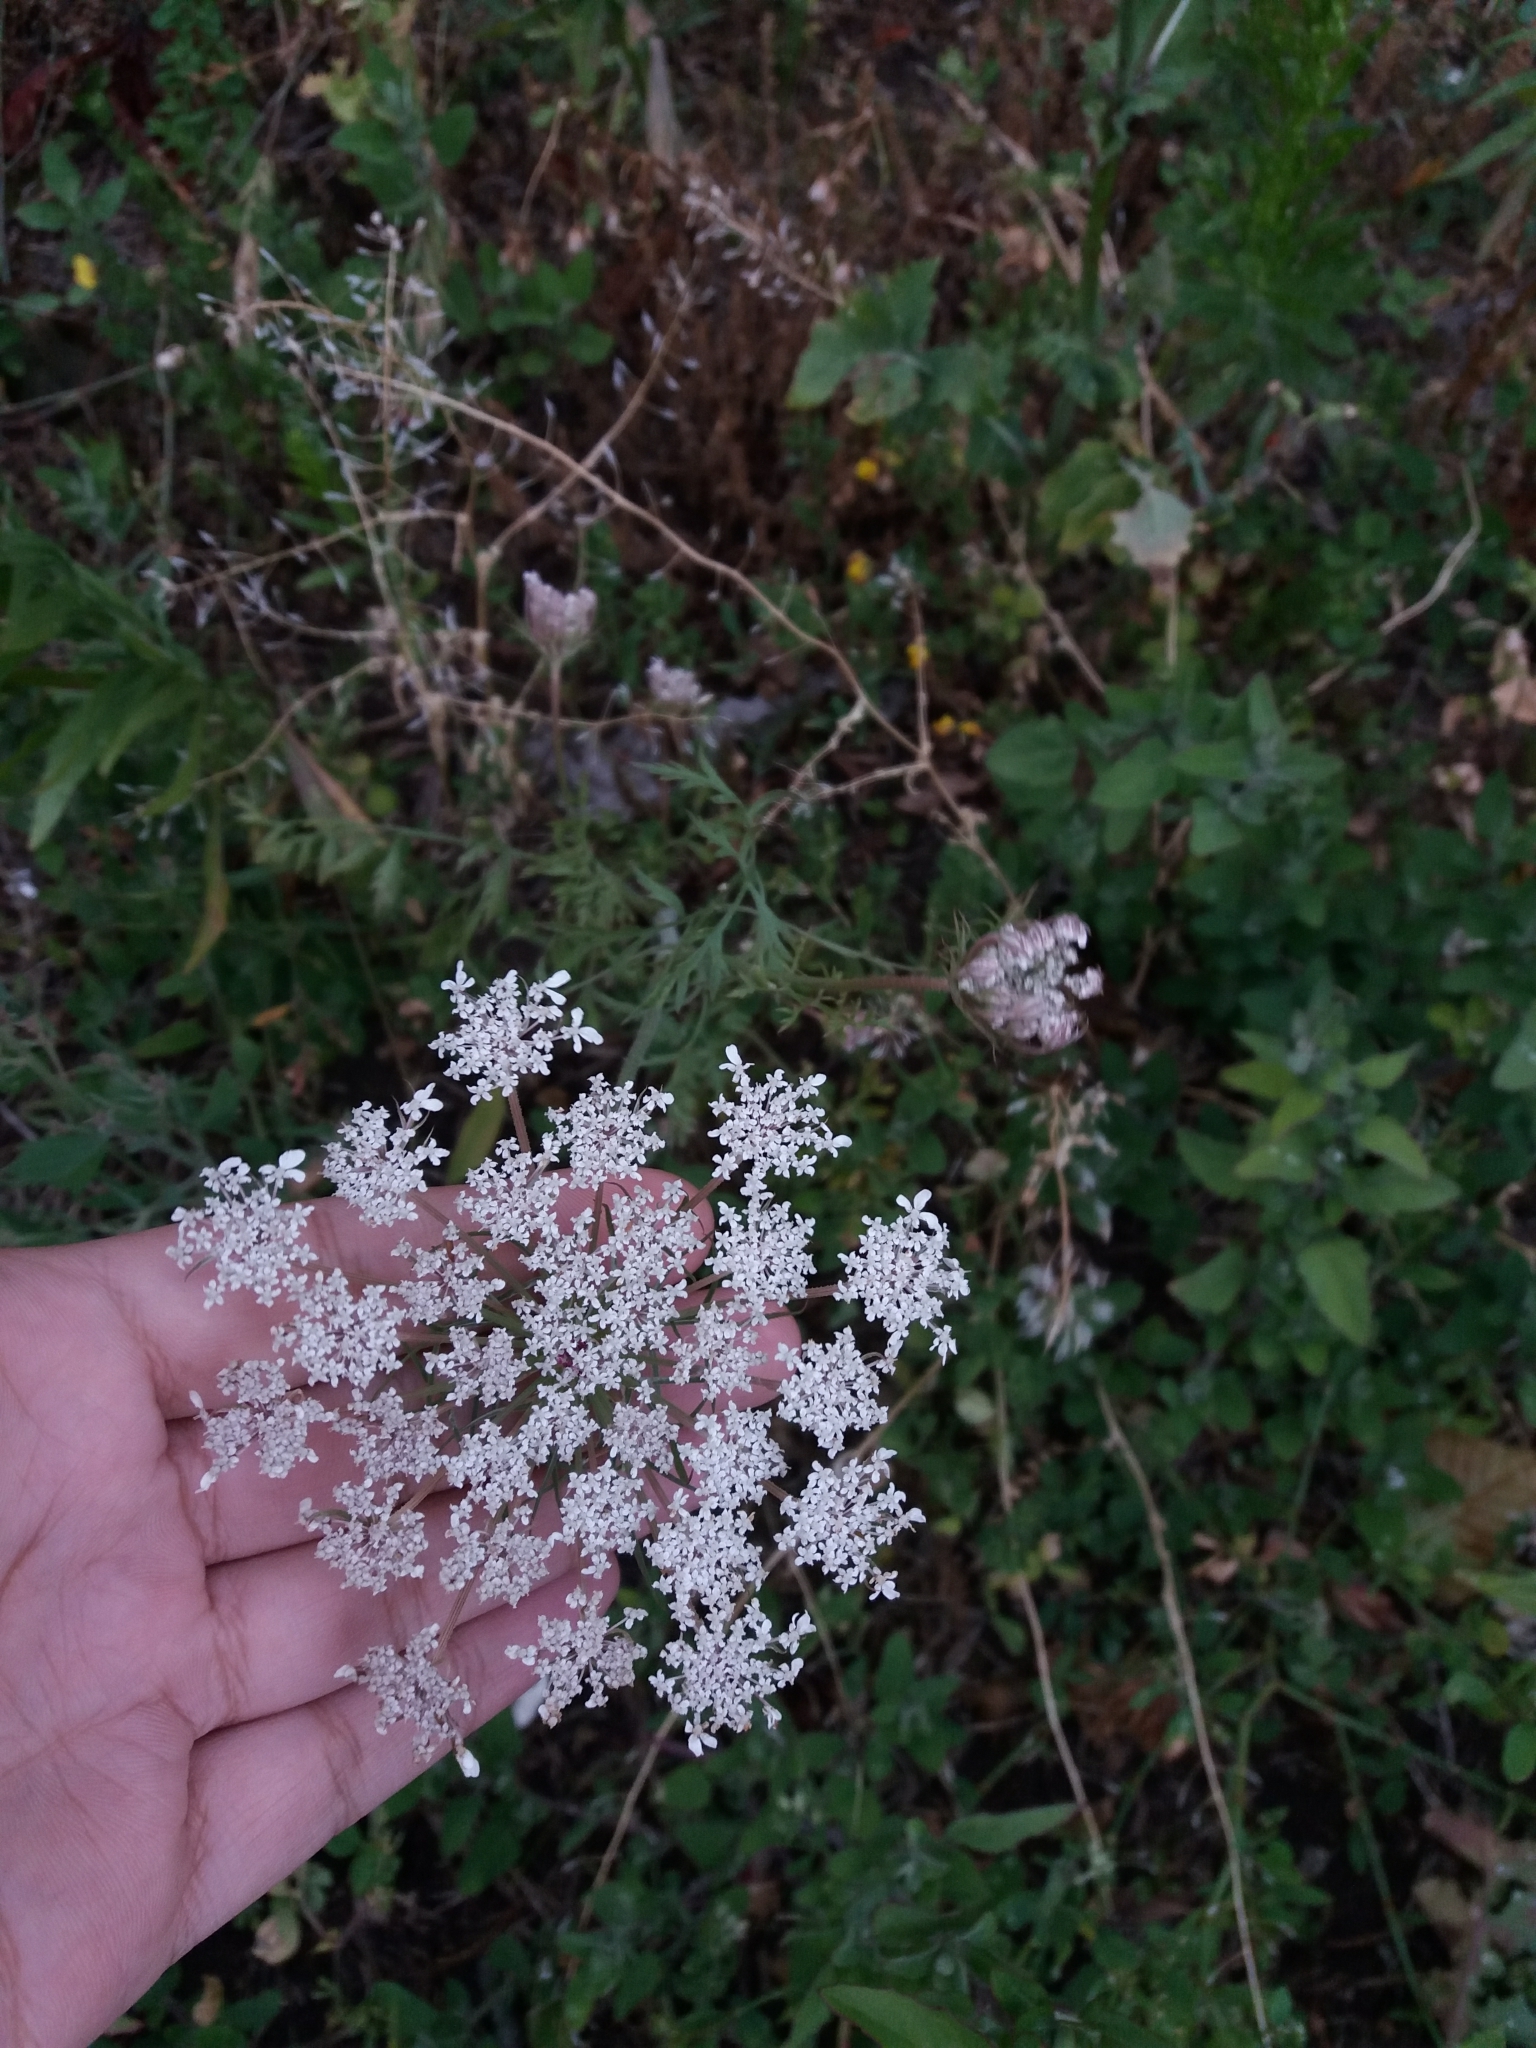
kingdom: Plantae
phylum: Tracheophyta
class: Magnoliopsida
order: Apiales
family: Apiaceae
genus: Daucus
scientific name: Daucus carota
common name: Wild carrot
